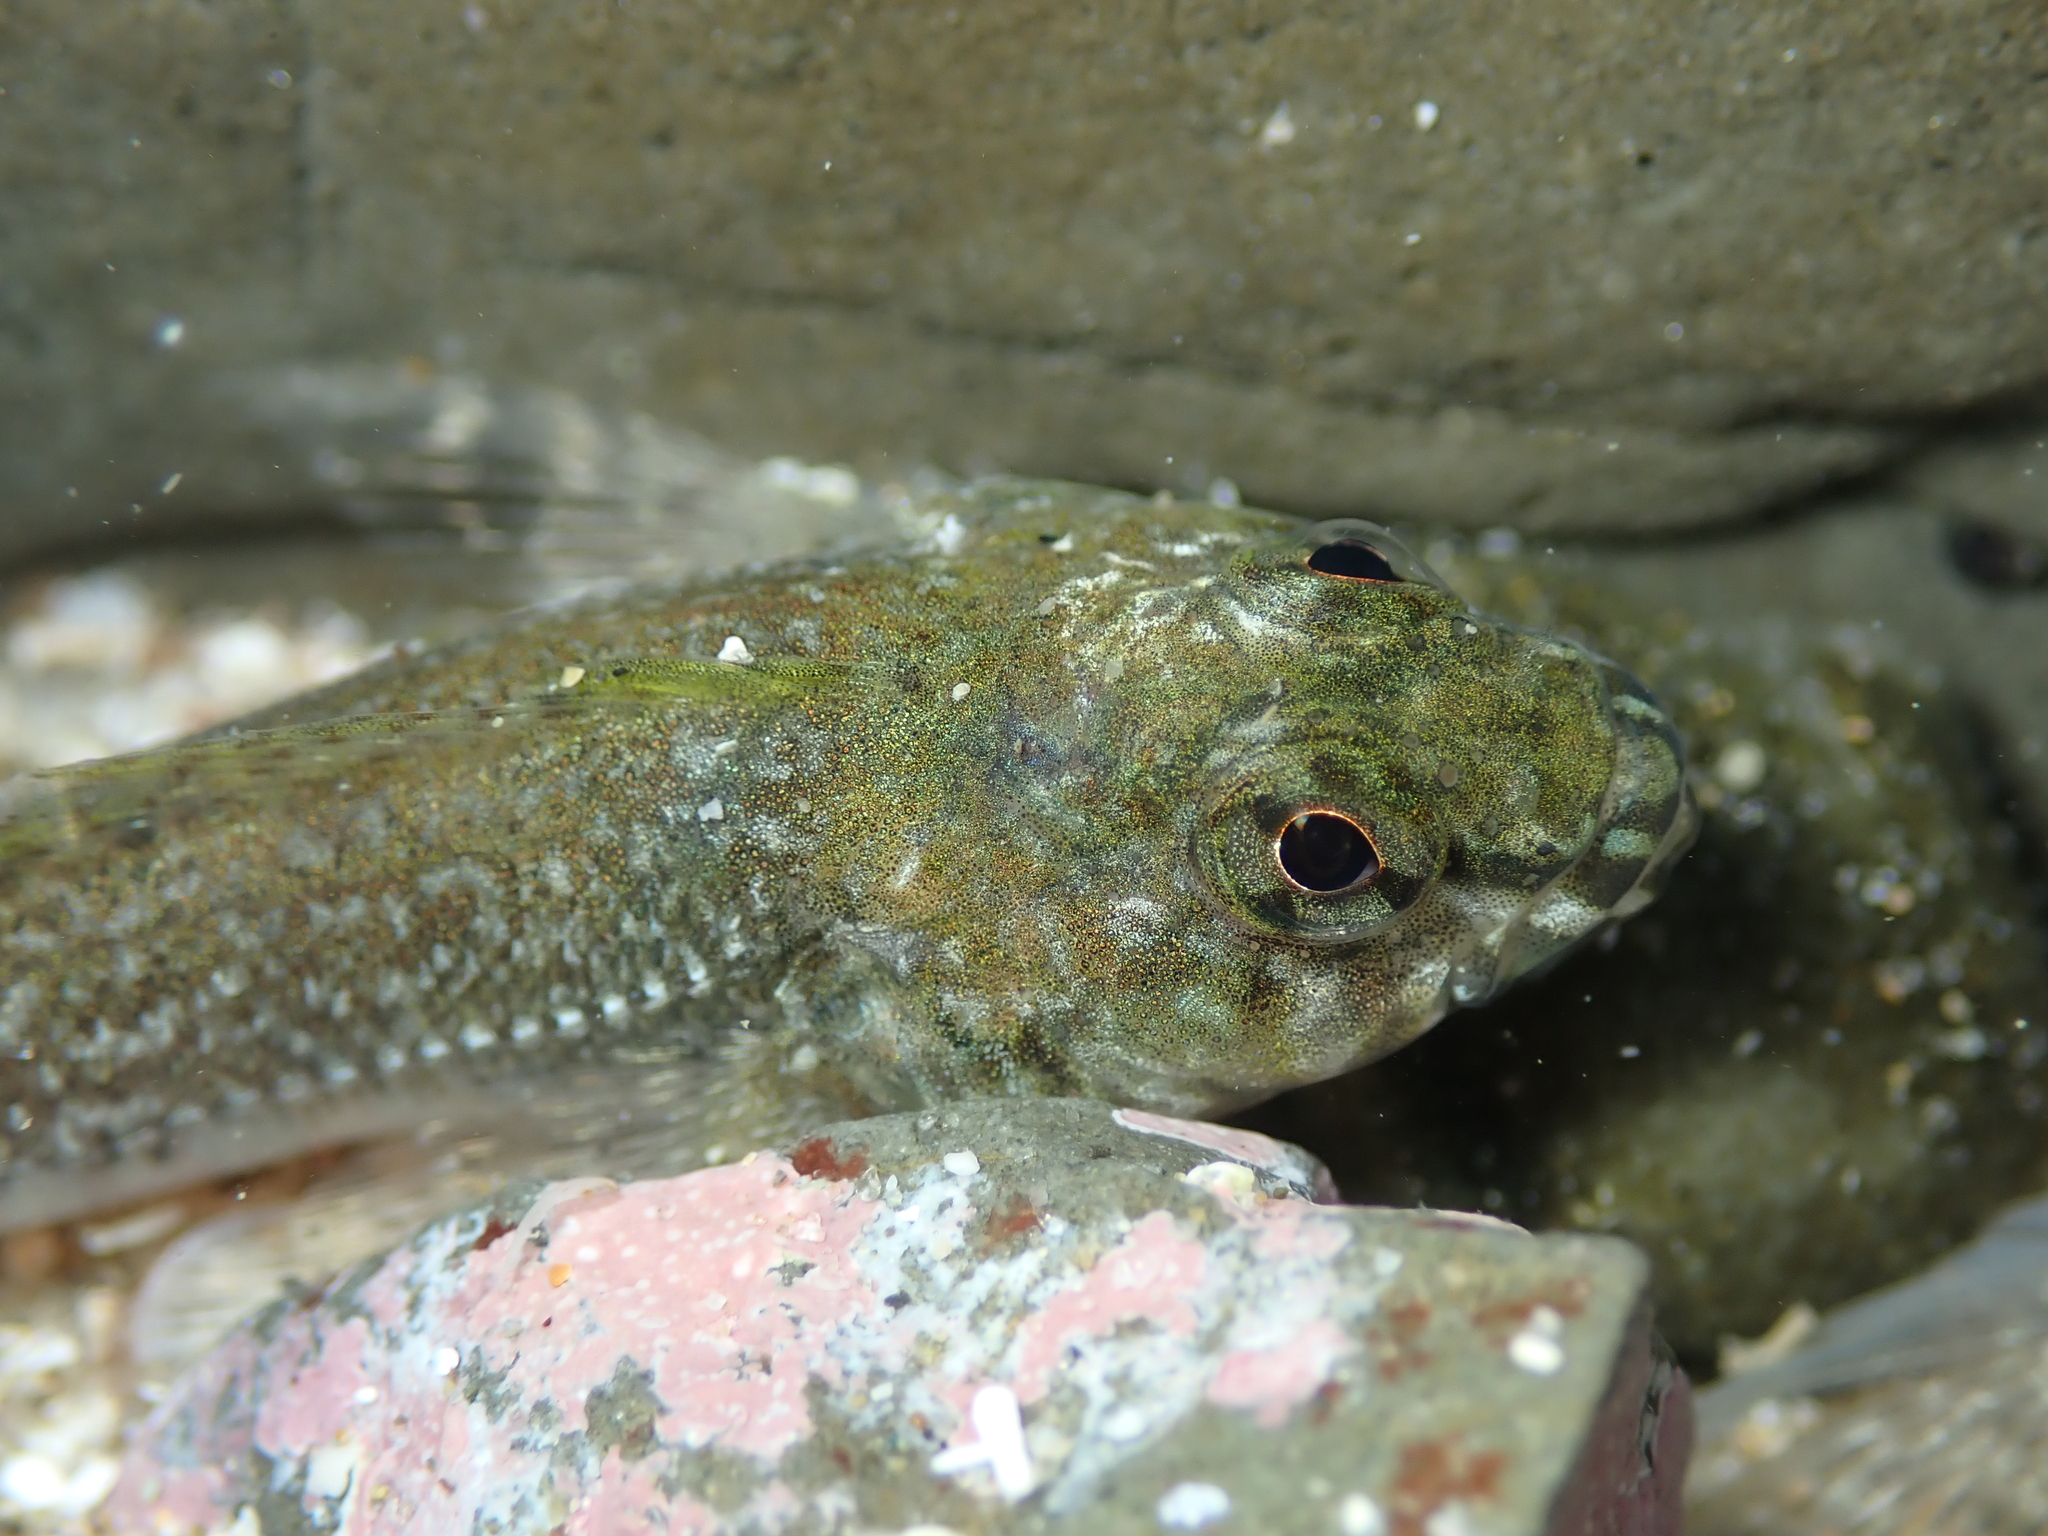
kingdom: Animalia
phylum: Chordata
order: Perciformes
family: Tripterygiidae
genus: Bellapiscis
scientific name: Bellapiscis medius
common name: Twister
